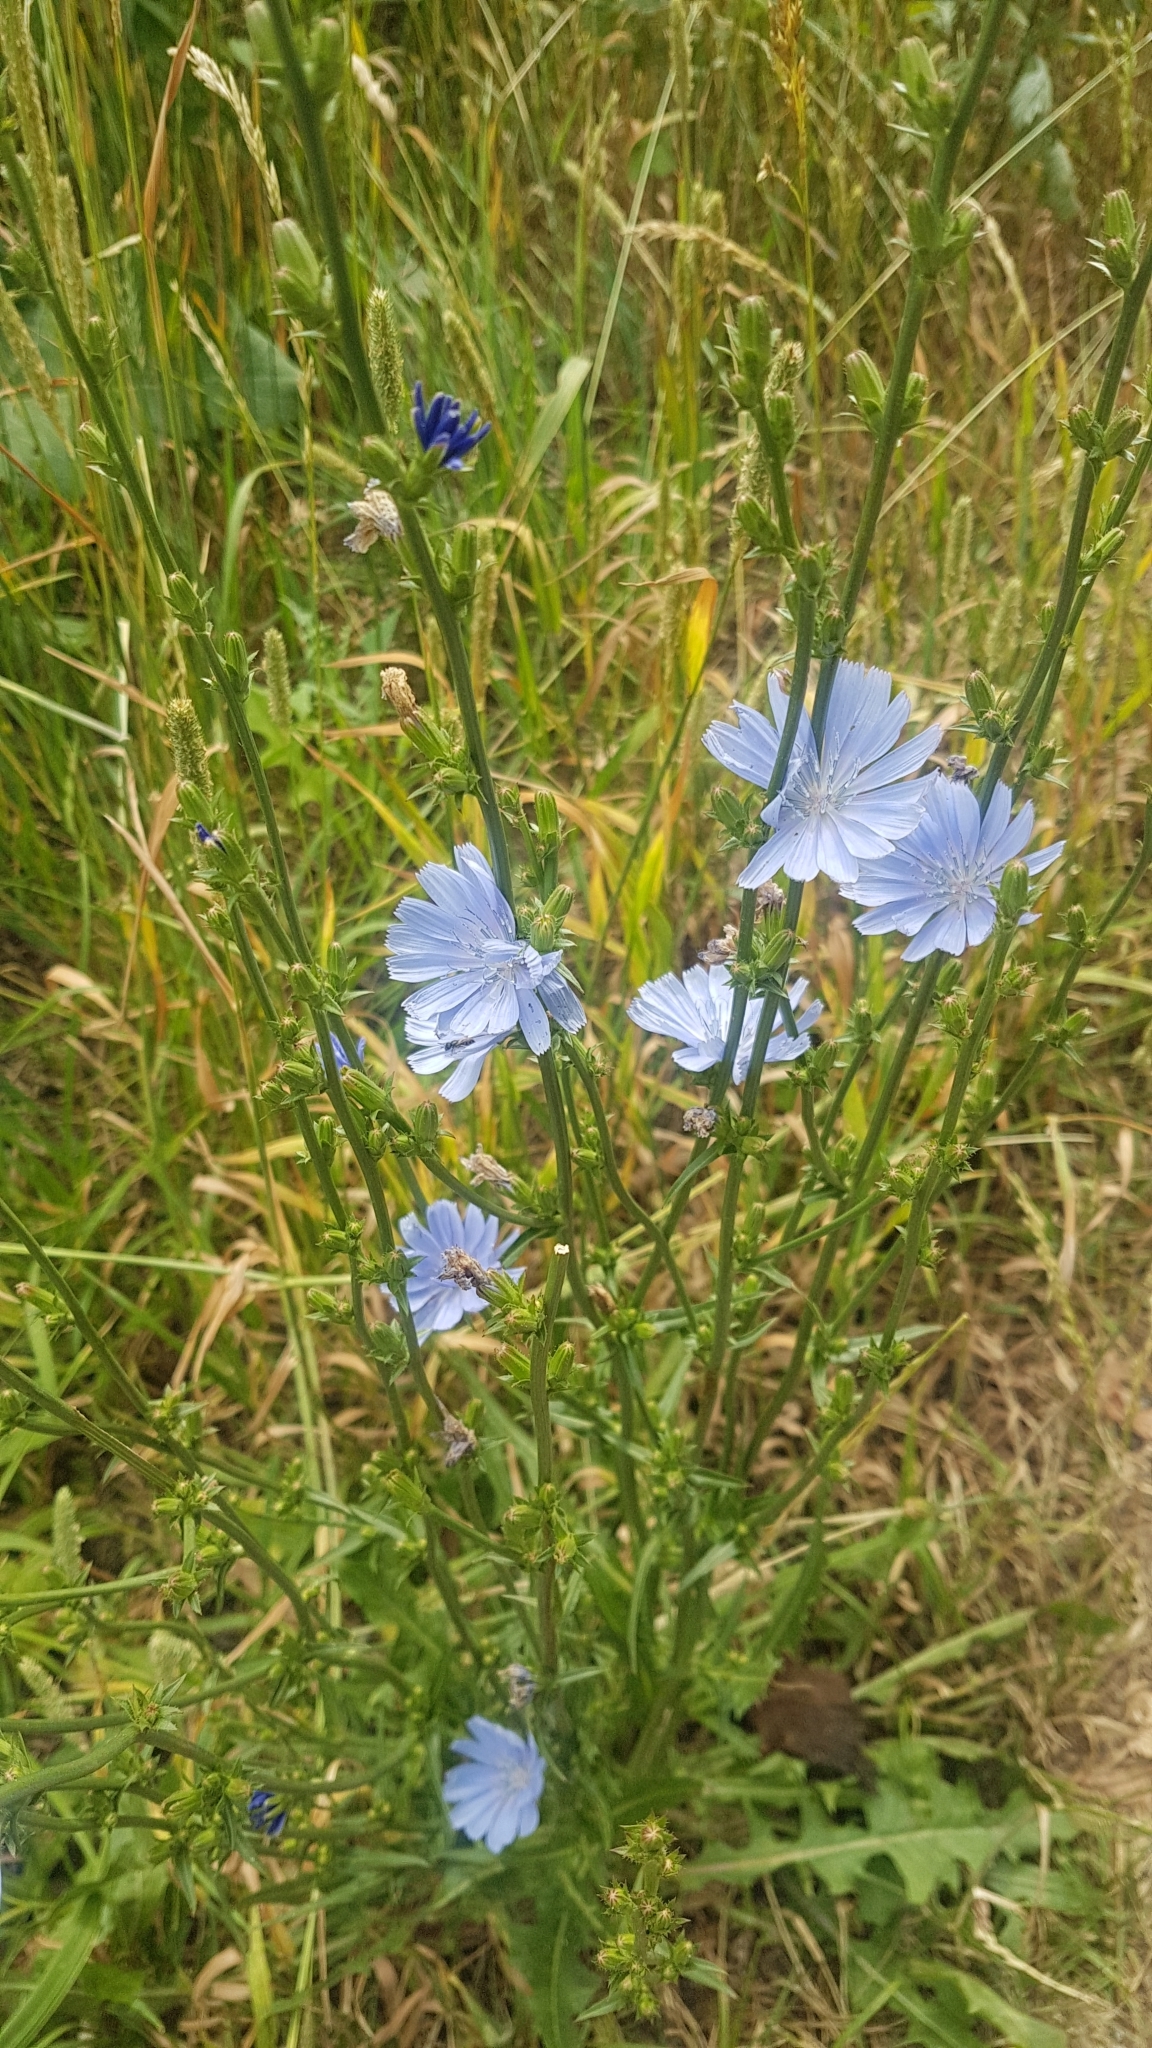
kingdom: Plantae
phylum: Tracheophyta
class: Magnoliopsida
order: Asterales
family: Asteraceae
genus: Cichorium
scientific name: Cichorium intybus
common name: Chicory
